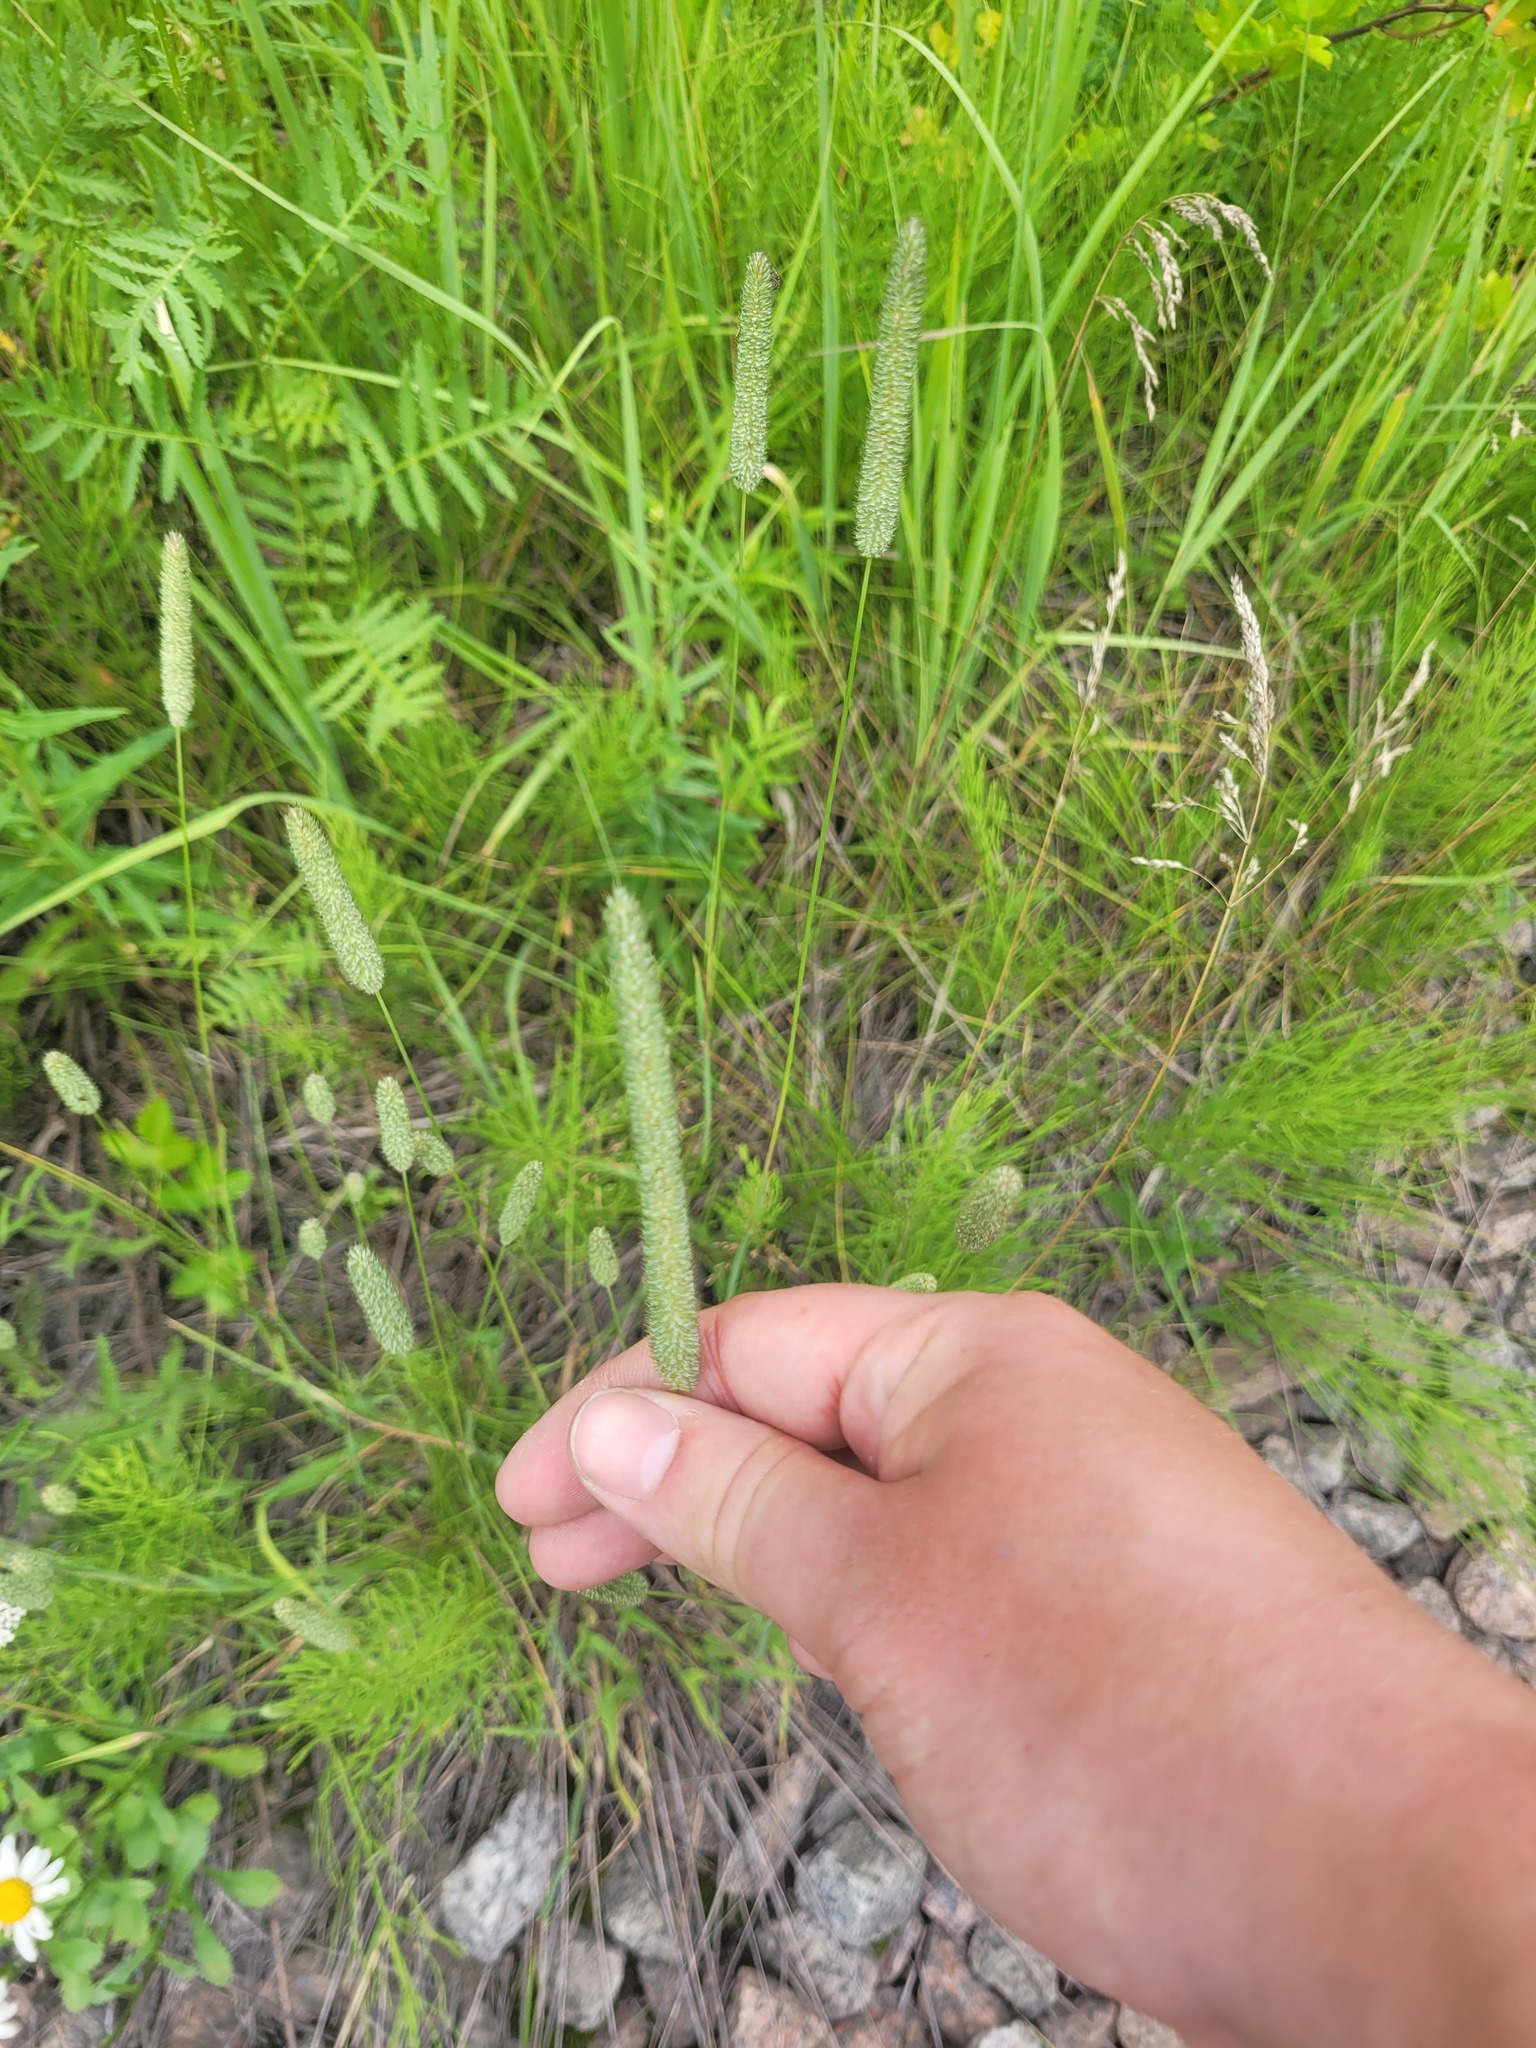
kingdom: Plantae
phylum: Tracheophyta
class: Liliopsida
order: Poales
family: Poaceae
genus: Phleum
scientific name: Phleum pratense
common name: Timothy grass
